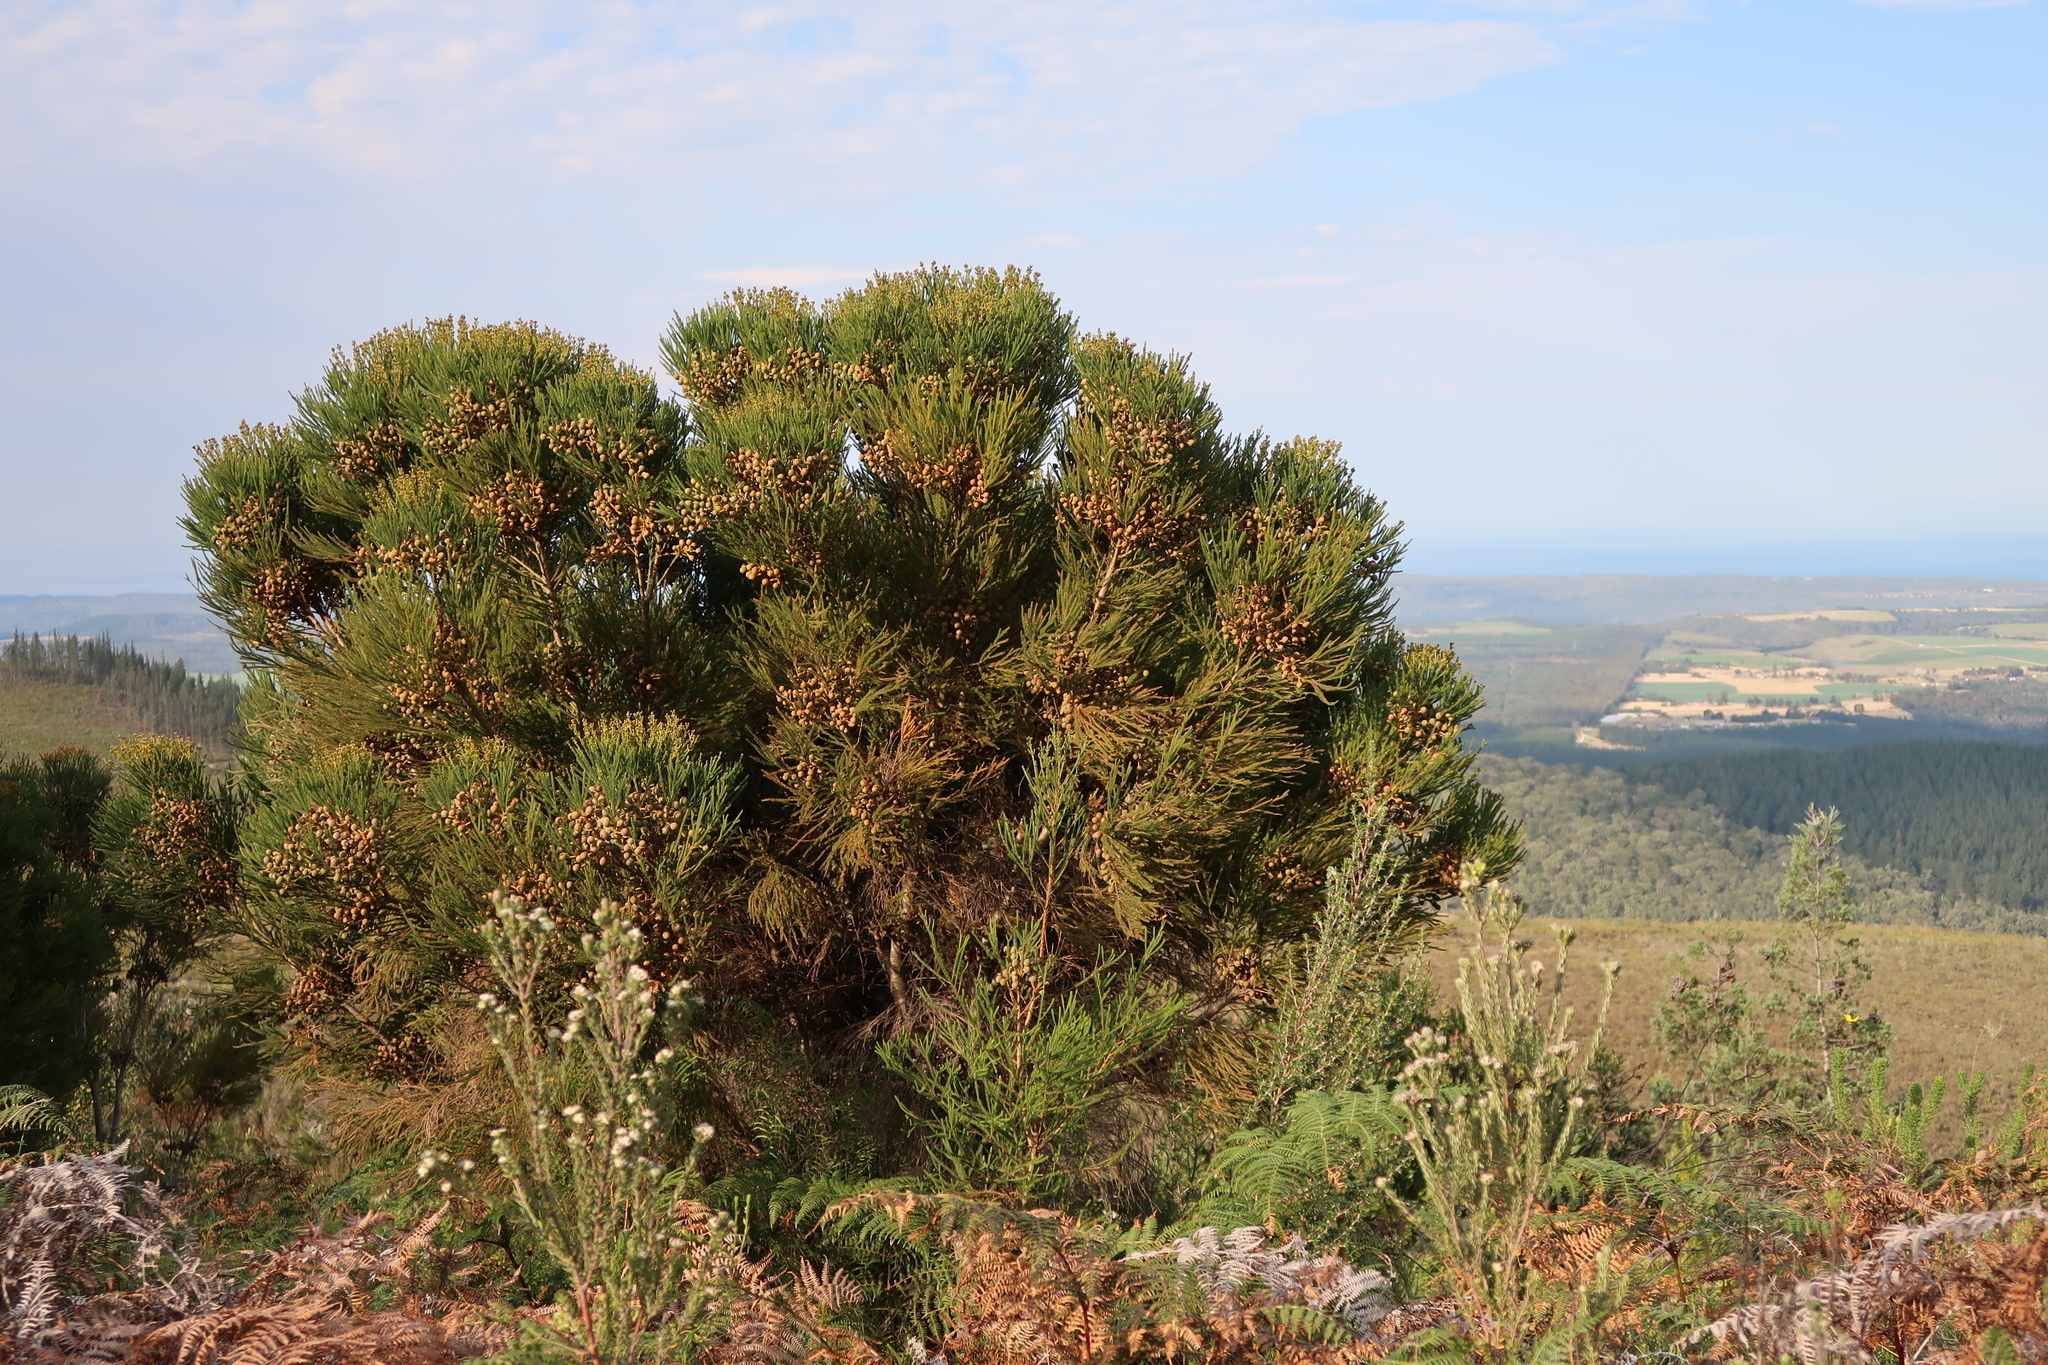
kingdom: Plantae
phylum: Tracheophyta
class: Magnoliopsida
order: Bruniales
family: Bruniaceae
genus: Berzelia
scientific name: Berzelia intermedia
